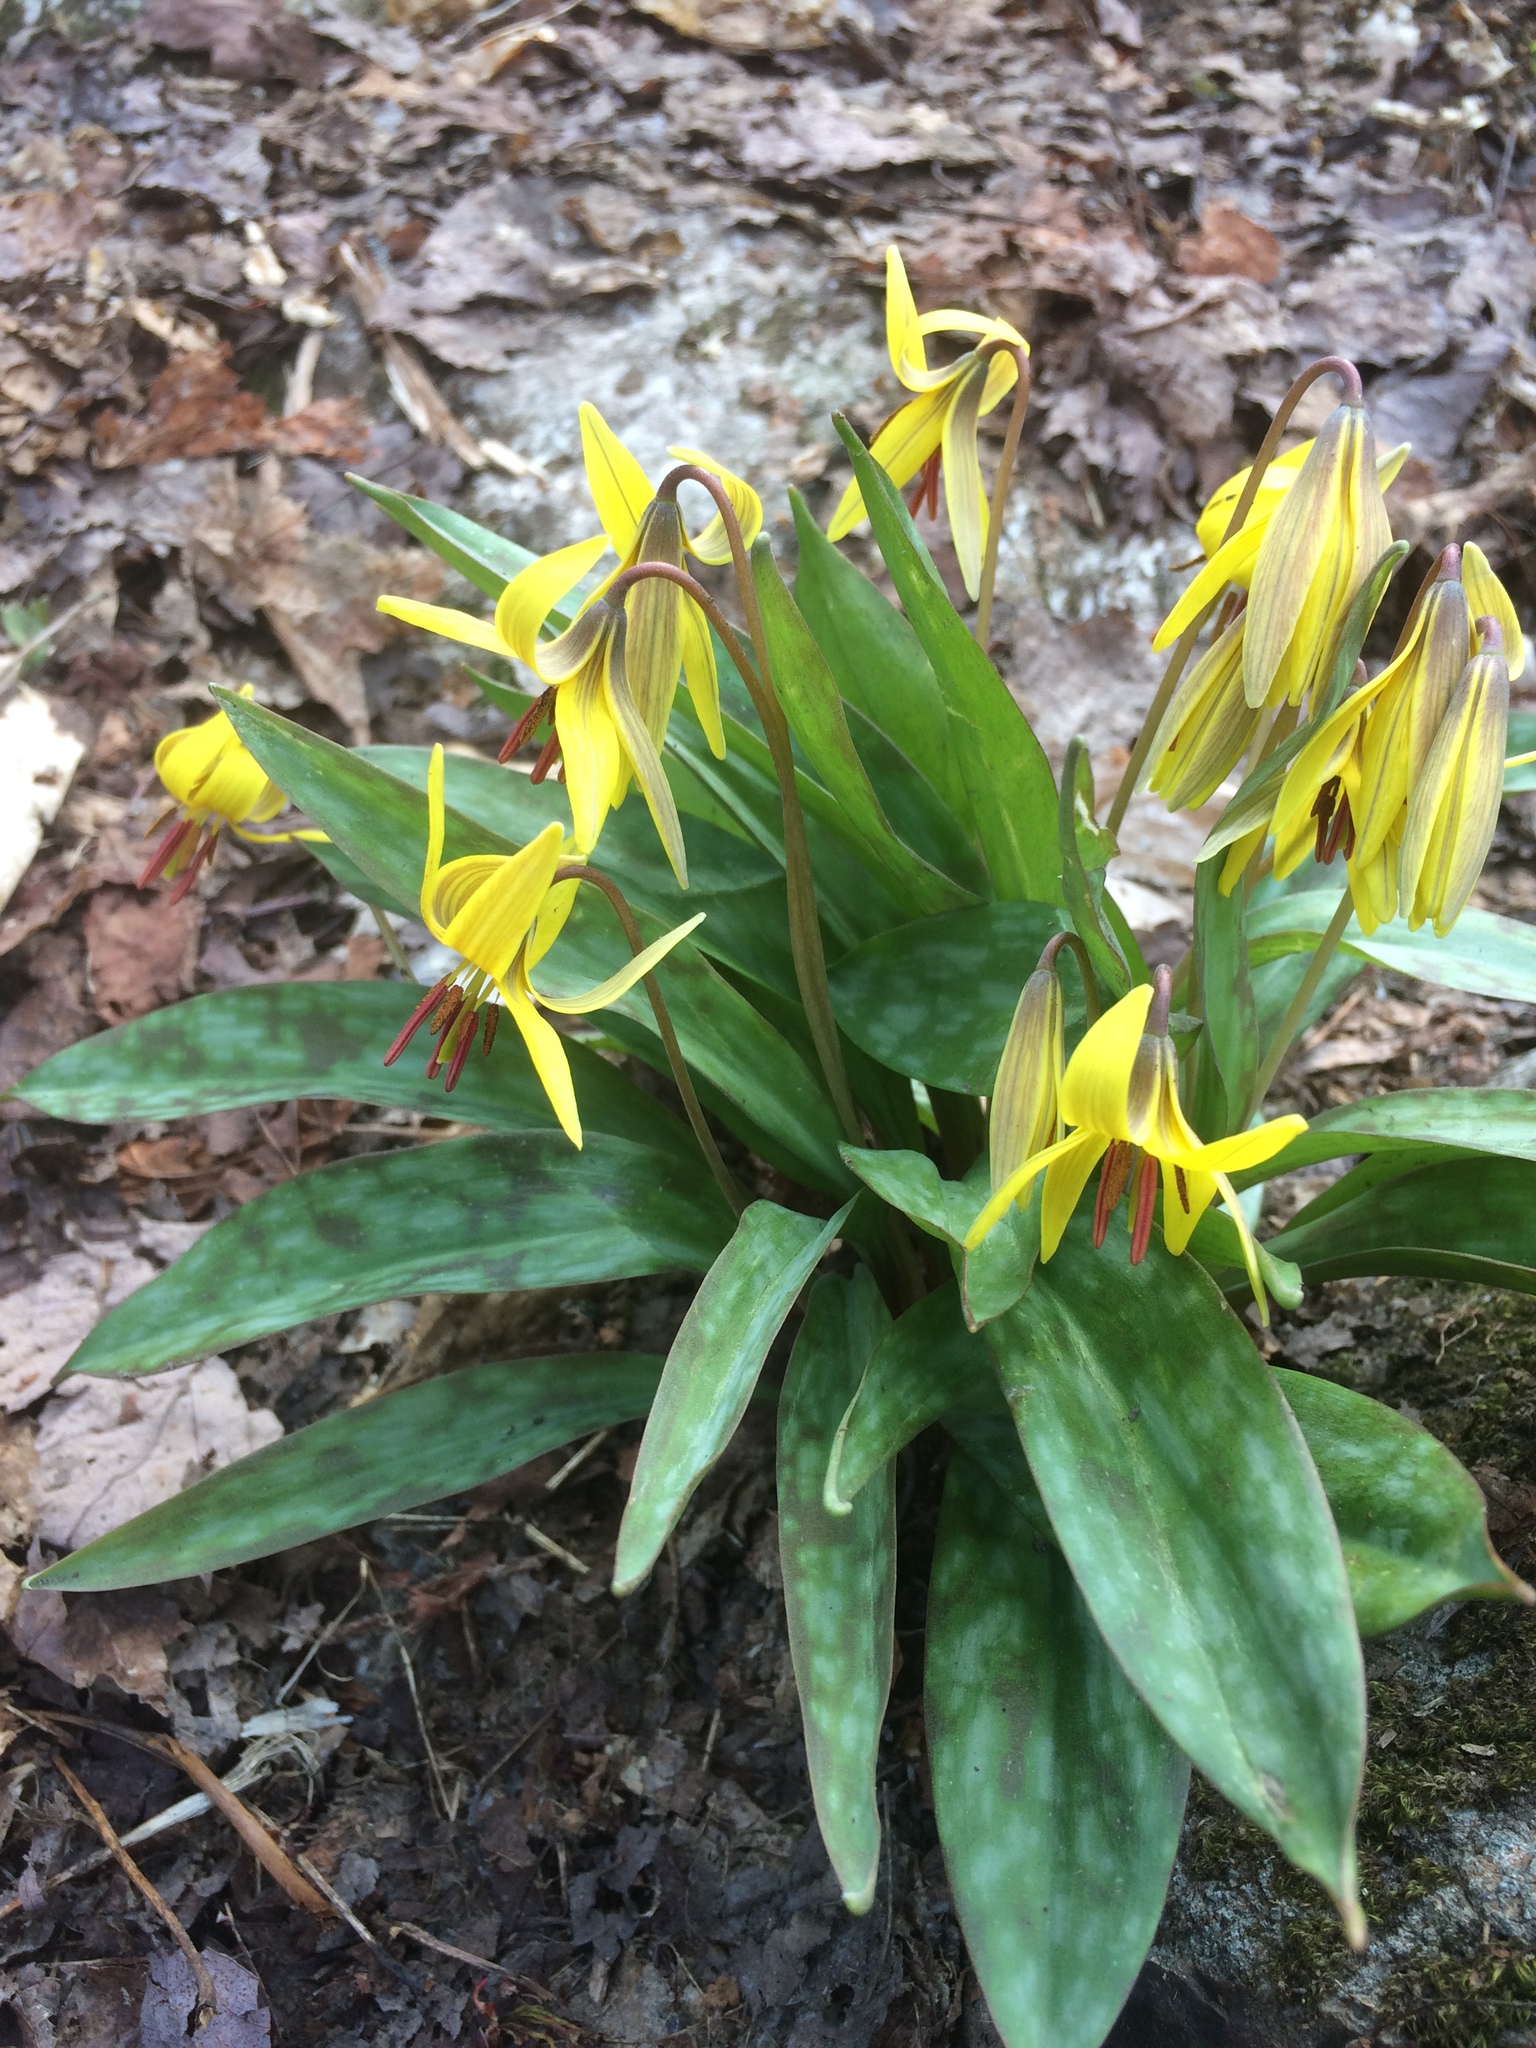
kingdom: Plantae
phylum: Tracheophyta
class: Liliopsida
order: Liliales
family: Liliaceae
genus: Erythronium
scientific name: Erythronium americanum
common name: Yellow adder's-tongue
